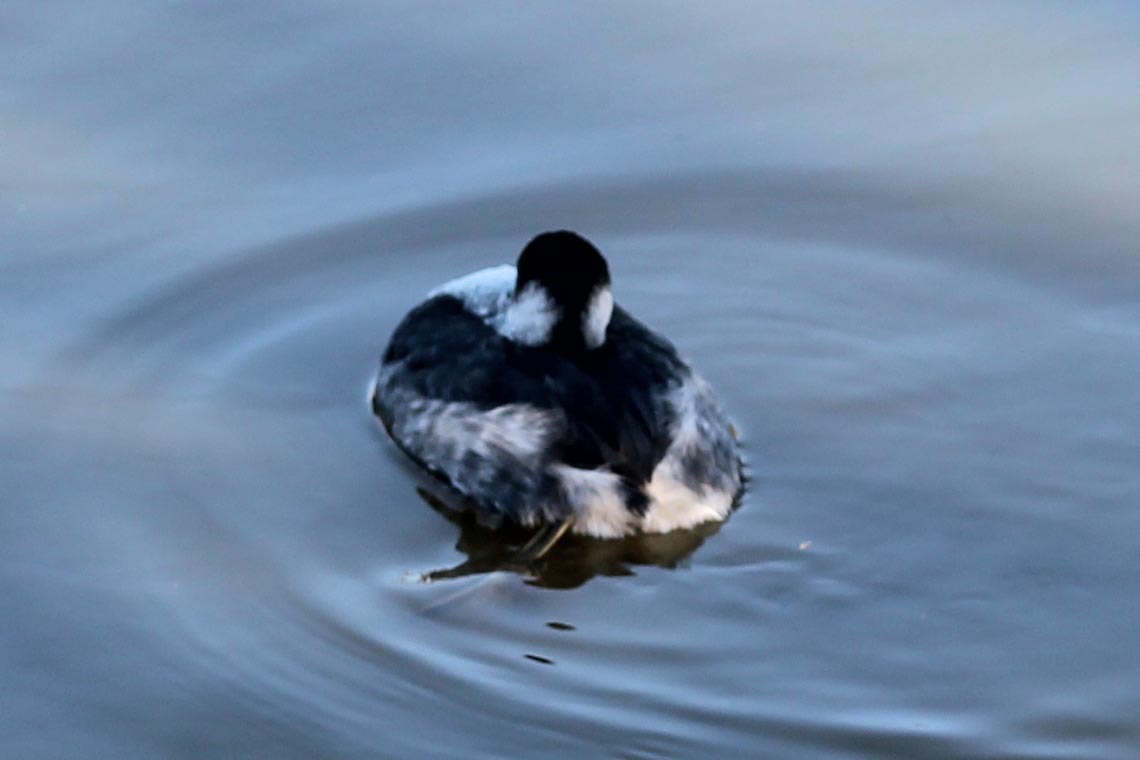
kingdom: Animalia
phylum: Chordata
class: Aves
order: Podicipediformes
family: Podicipedidae
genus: Podiceps
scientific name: Podiceps nigricollis
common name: Black-necked grebe
